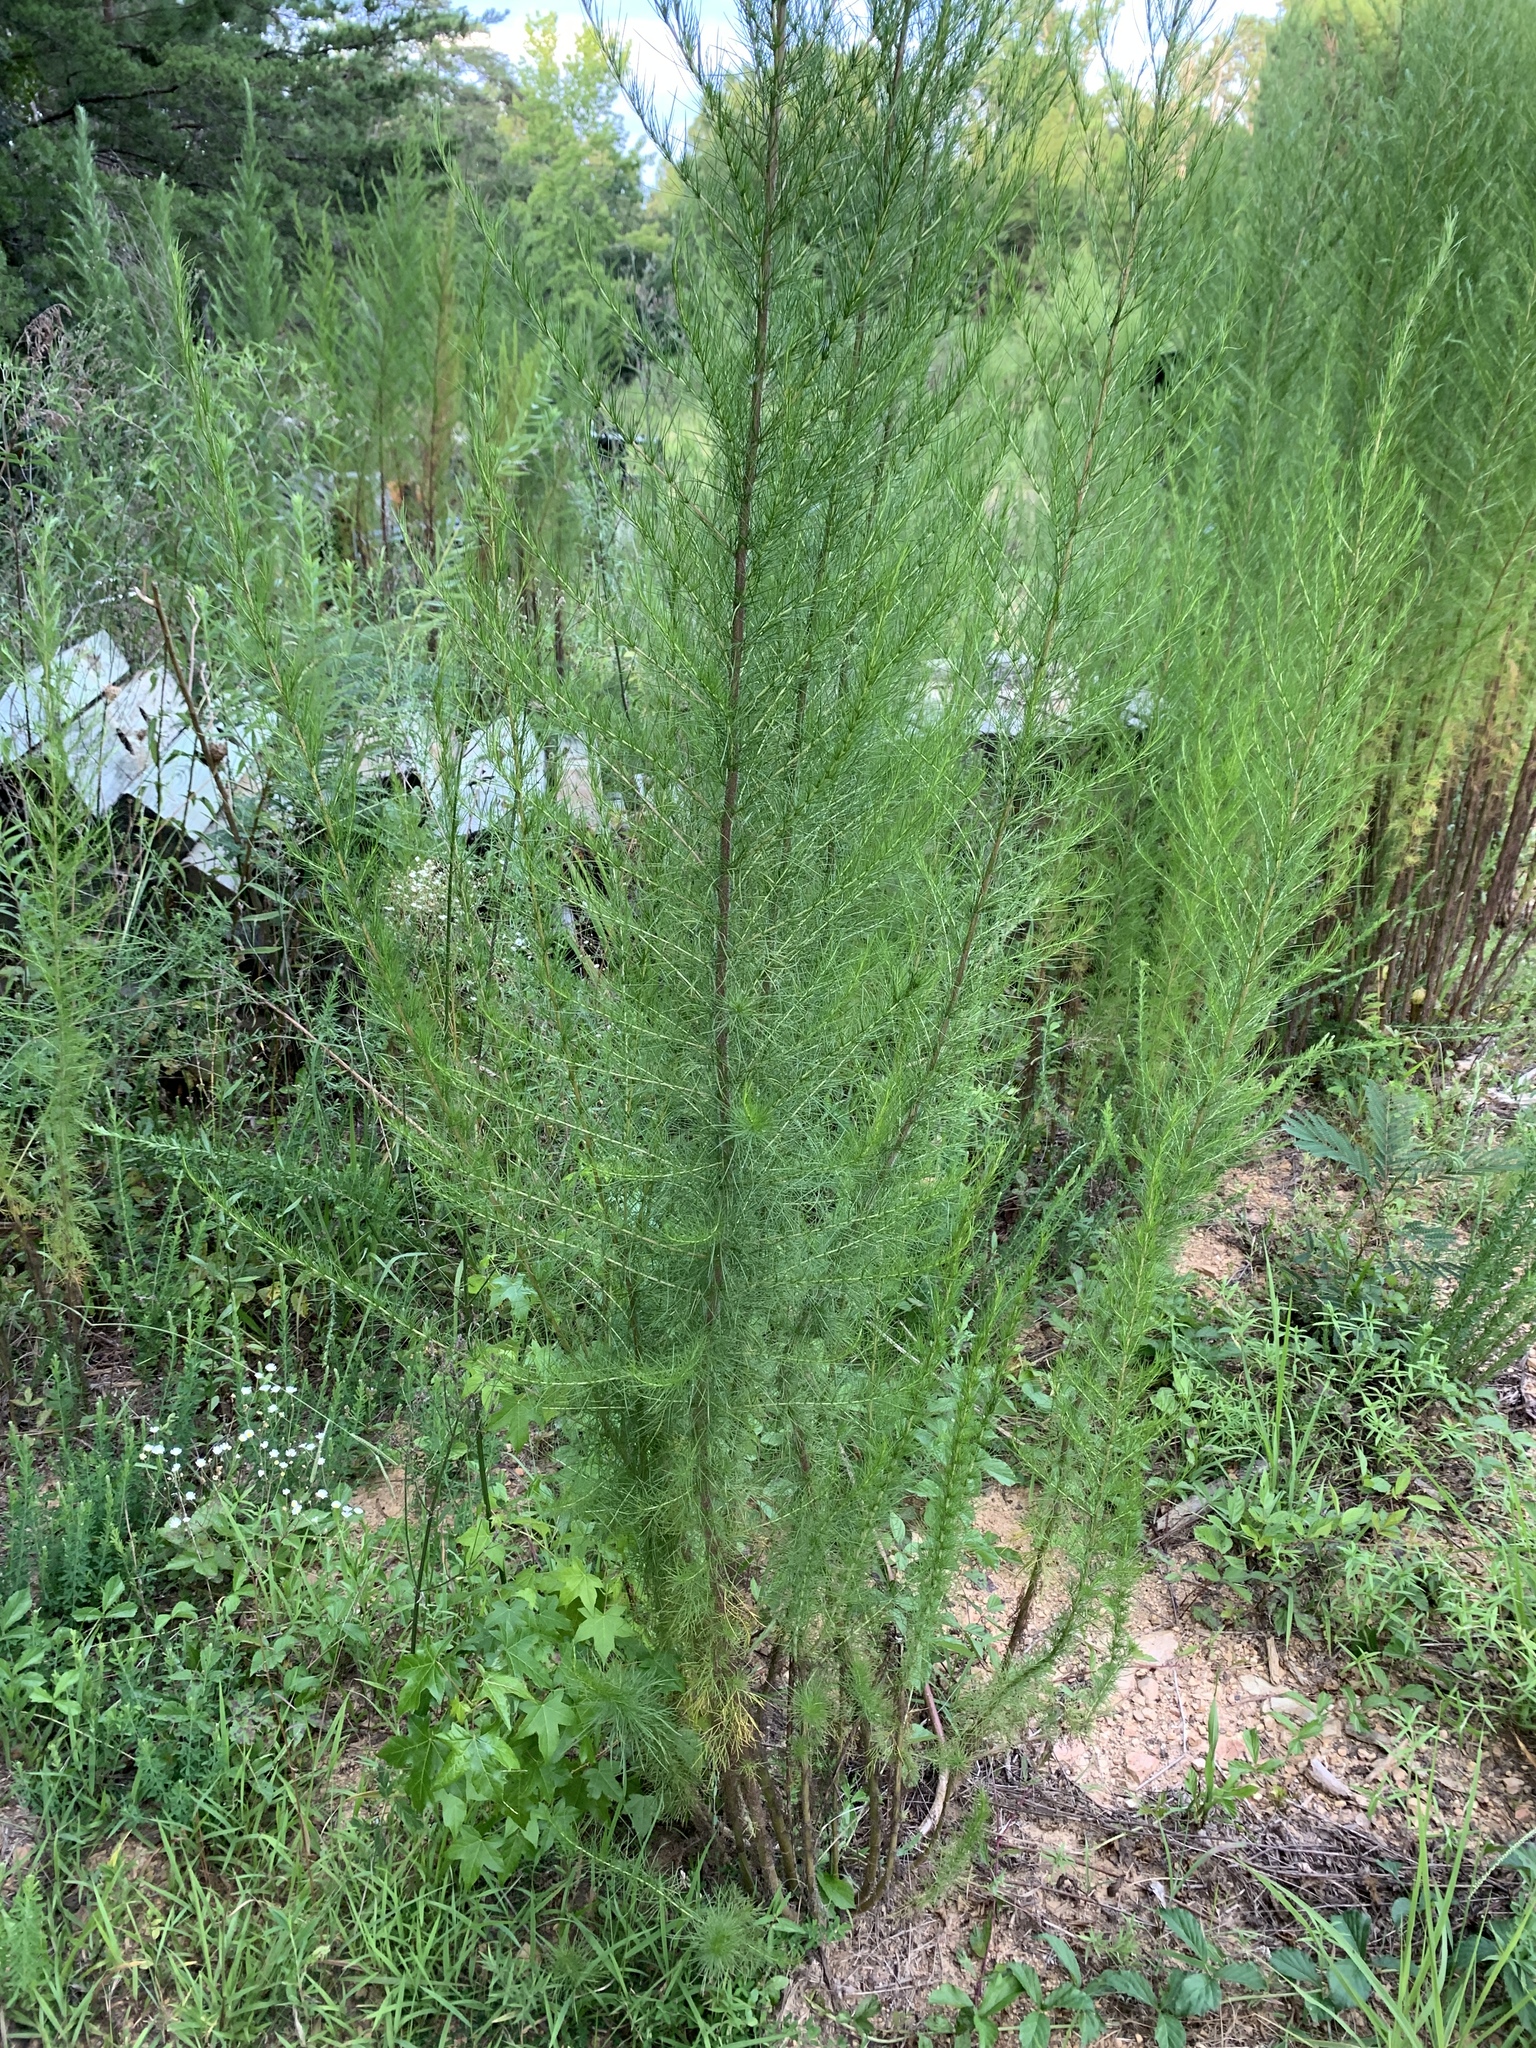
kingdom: Plantae
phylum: Tracheophyta
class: Magnoliopsida
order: Asterales
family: Asteraceae
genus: Eupatorium
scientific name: Eupatorium capillifolium
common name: Dog-fennel
